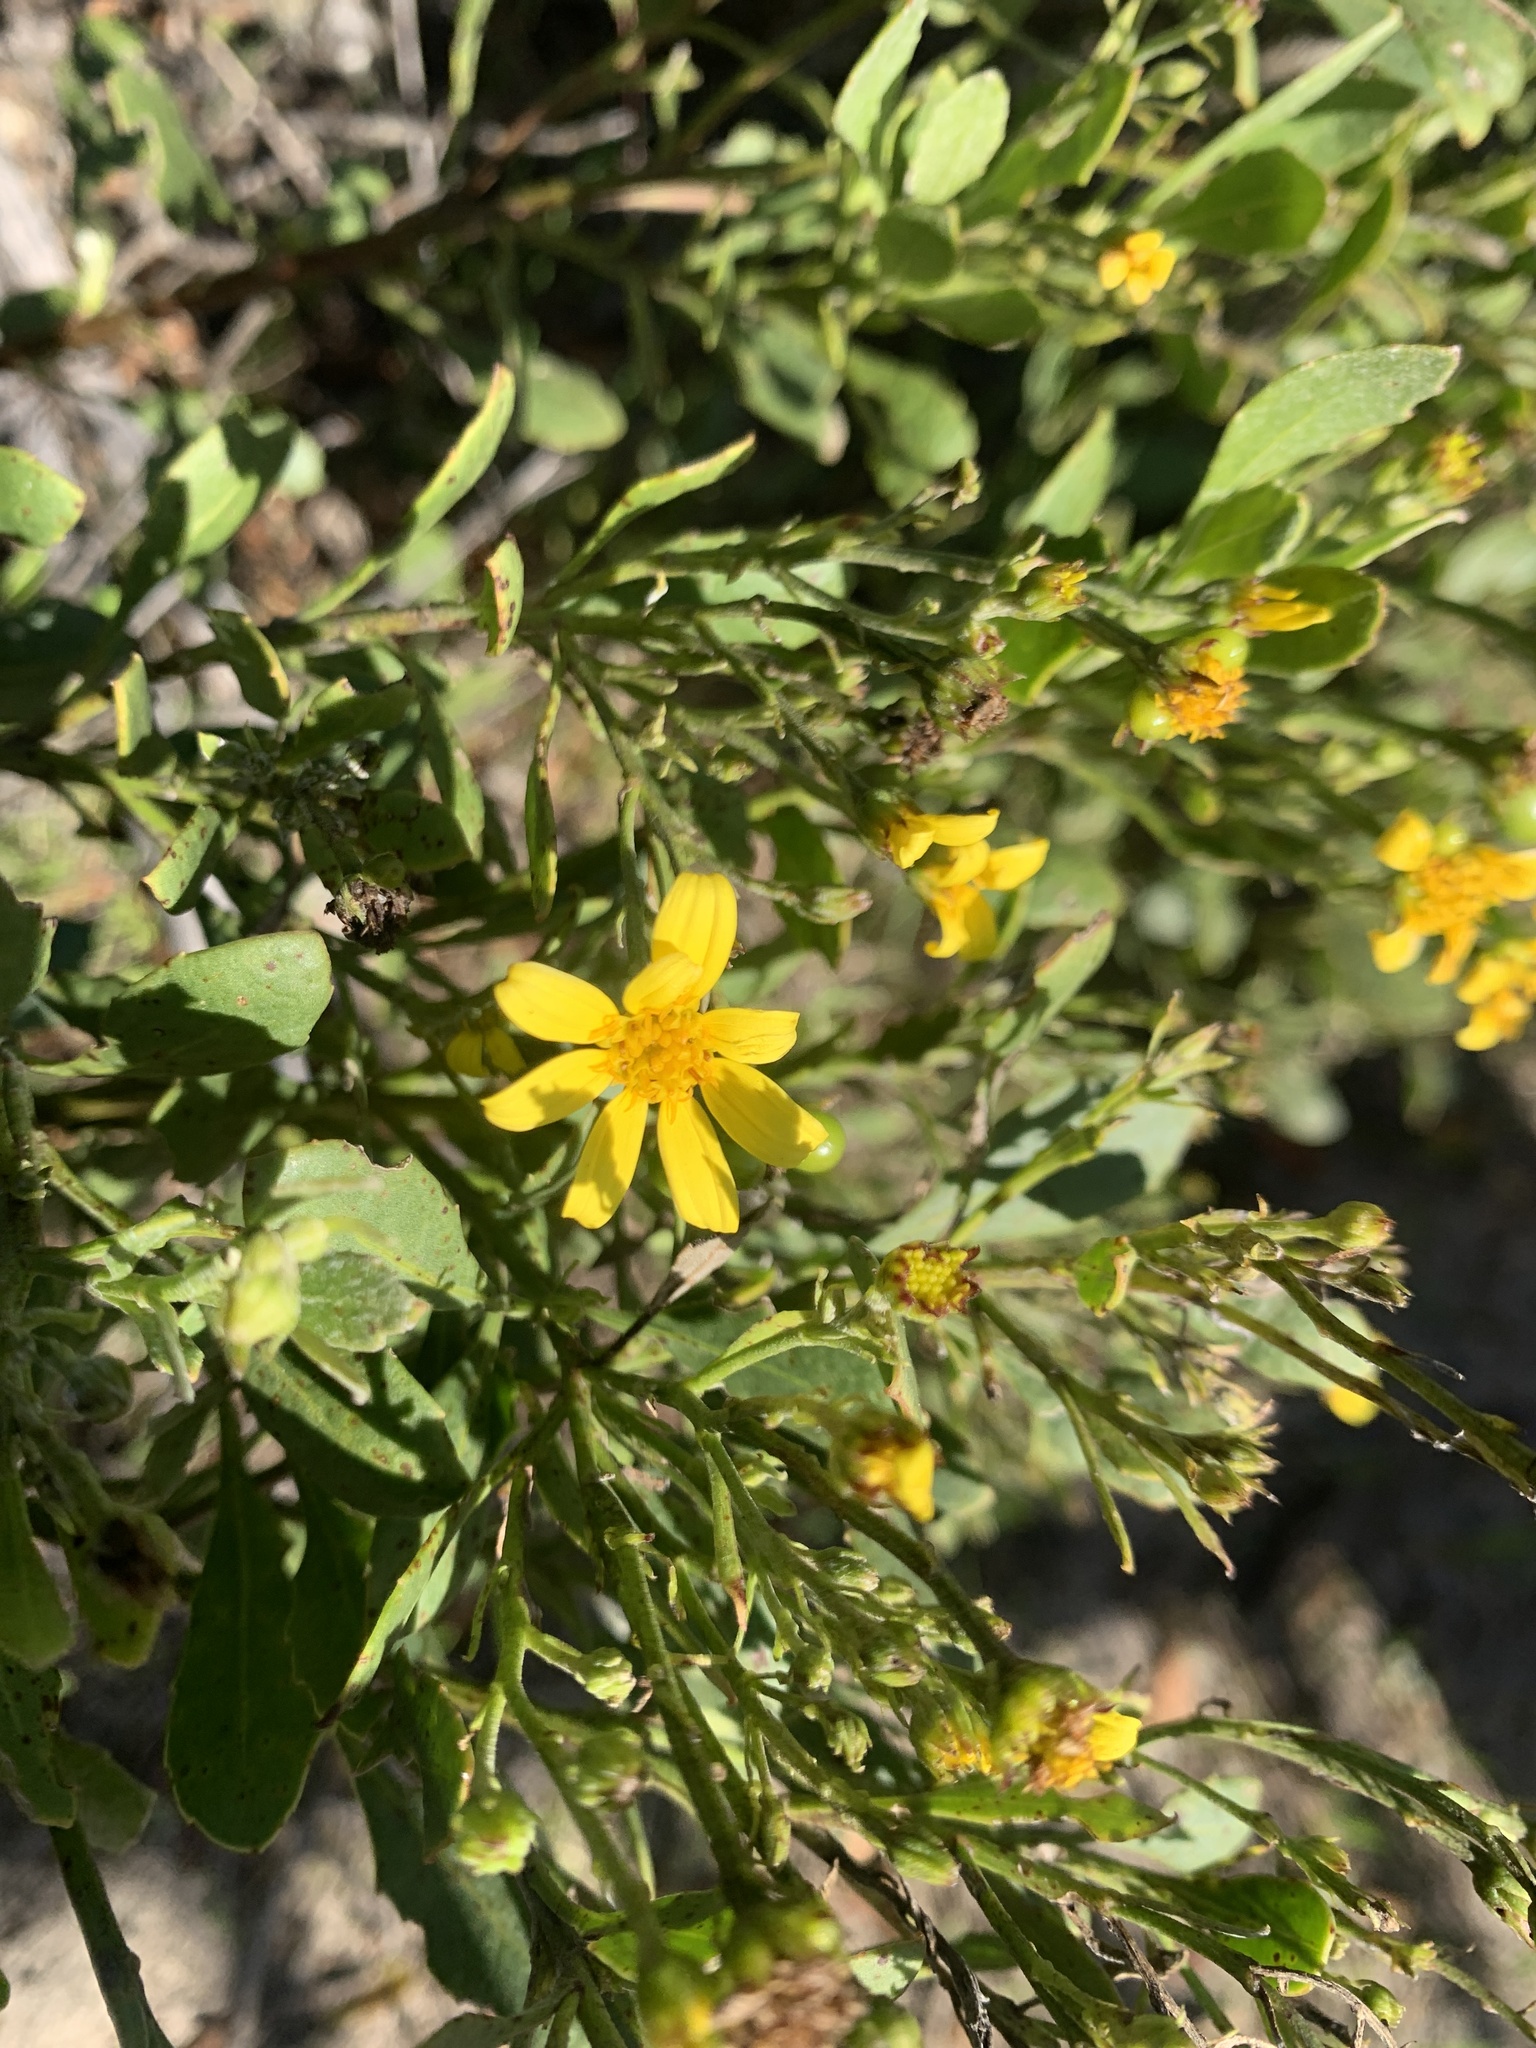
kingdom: Plantae
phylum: Tracheophyta
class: Magnoliopsida
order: Asterales
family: Asteraceae
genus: Osteospermum
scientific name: Osteospermum moniliferum
